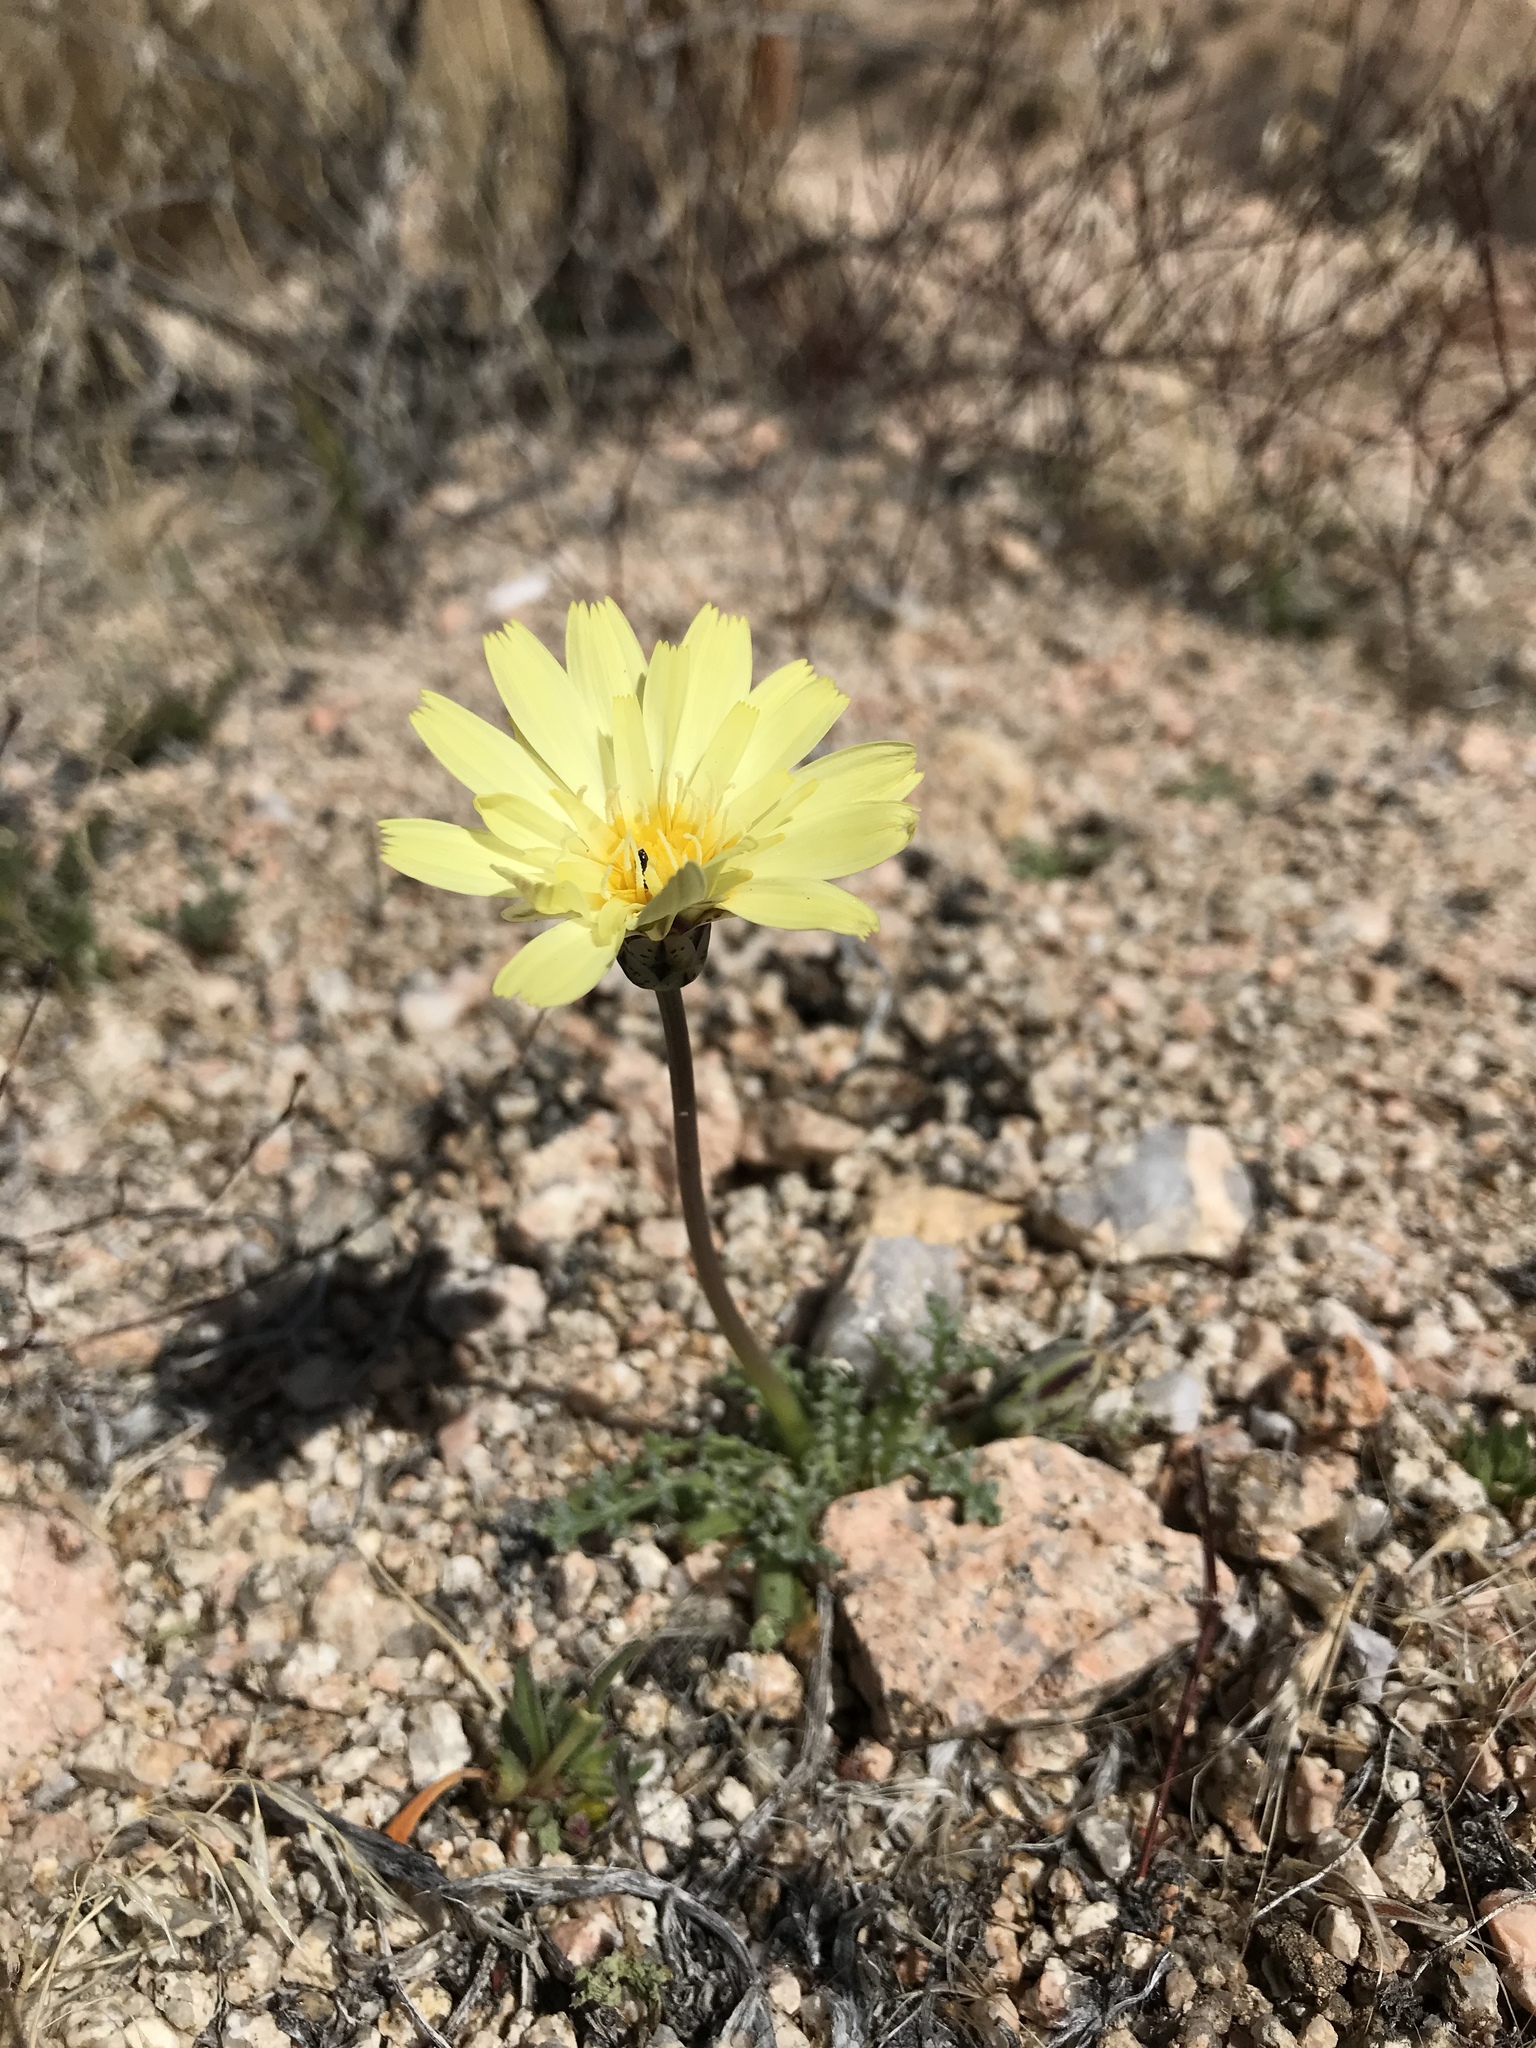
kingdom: Plantae
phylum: Tracheophyta
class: Magnoliopsida
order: Asterales
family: Asteraceae
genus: Anisocoma
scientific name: Anisocoma acaulis
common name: Scalebud
